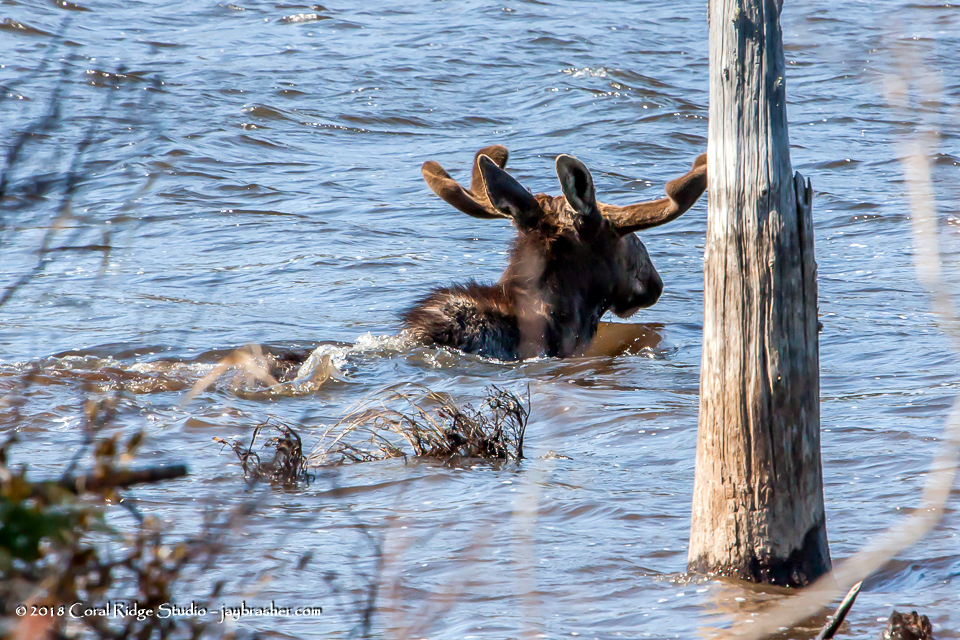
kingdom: Animalia
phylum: Chordata
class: Mammalia
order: Artiodactyla
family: Cervidae
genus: Alces
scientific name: Alces alces
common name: Moose
